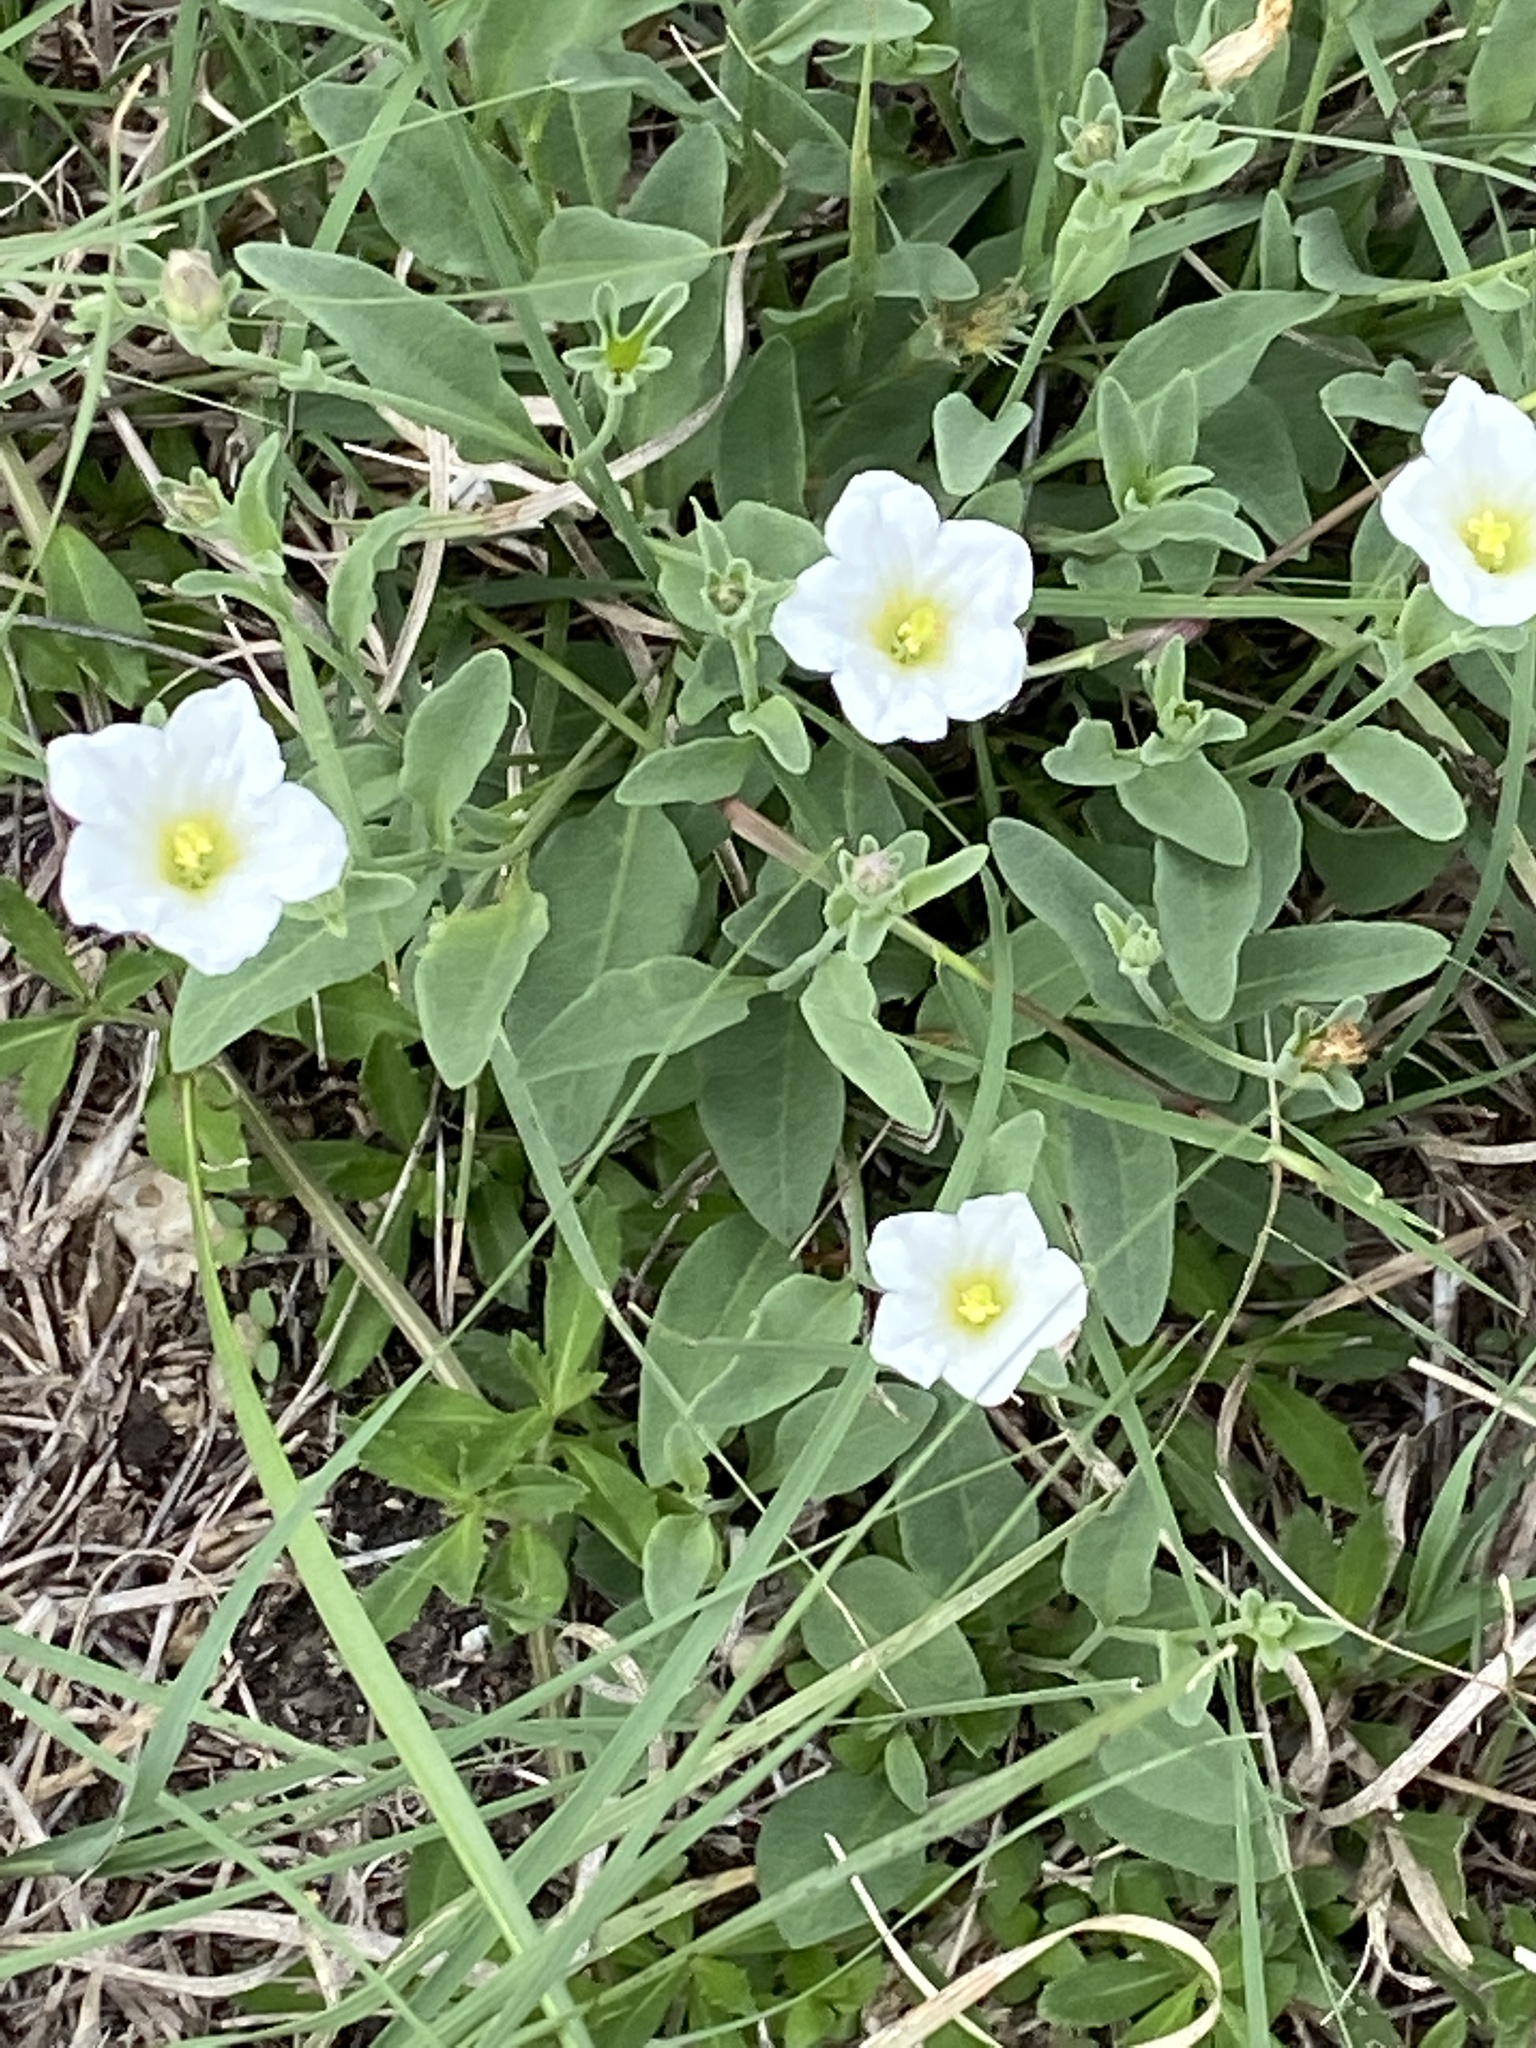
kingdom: Plantae
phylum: Tracheophyta
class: Magnoliopsida
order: Solanales
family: Solanaceae
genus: Salpiglossis
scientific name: Salpiglossis erecta
